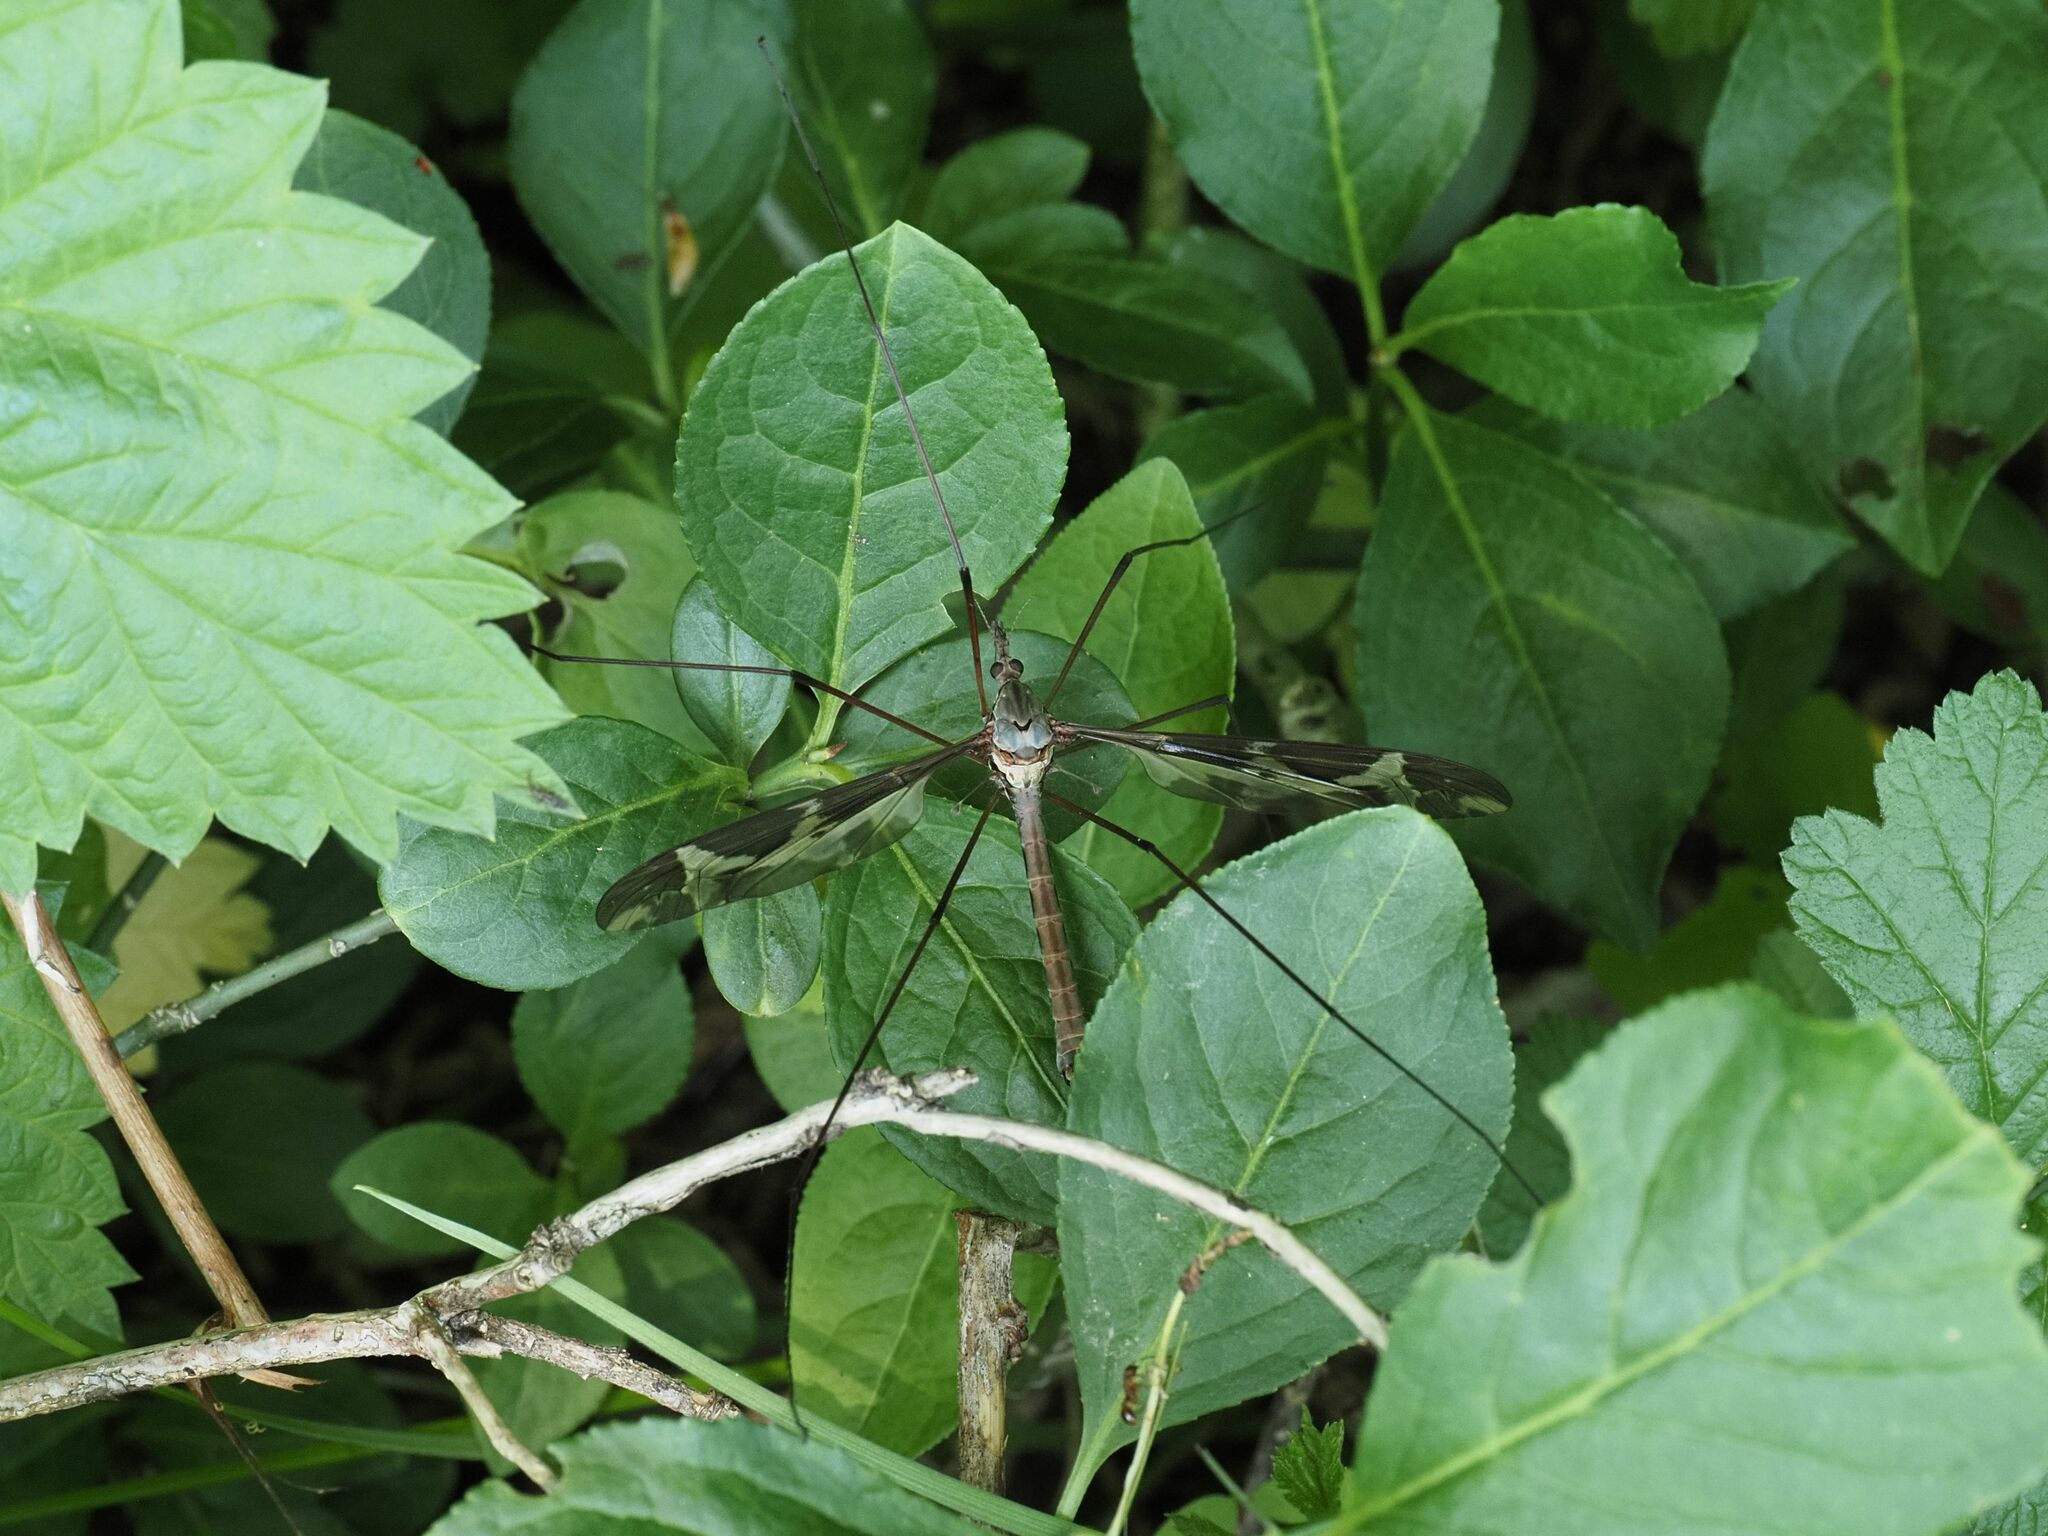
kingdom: Animalia
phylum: Arthropoda
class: Insecta
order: Diptera
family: Tipulidae
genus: Tipula
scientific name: Tipula maxima
